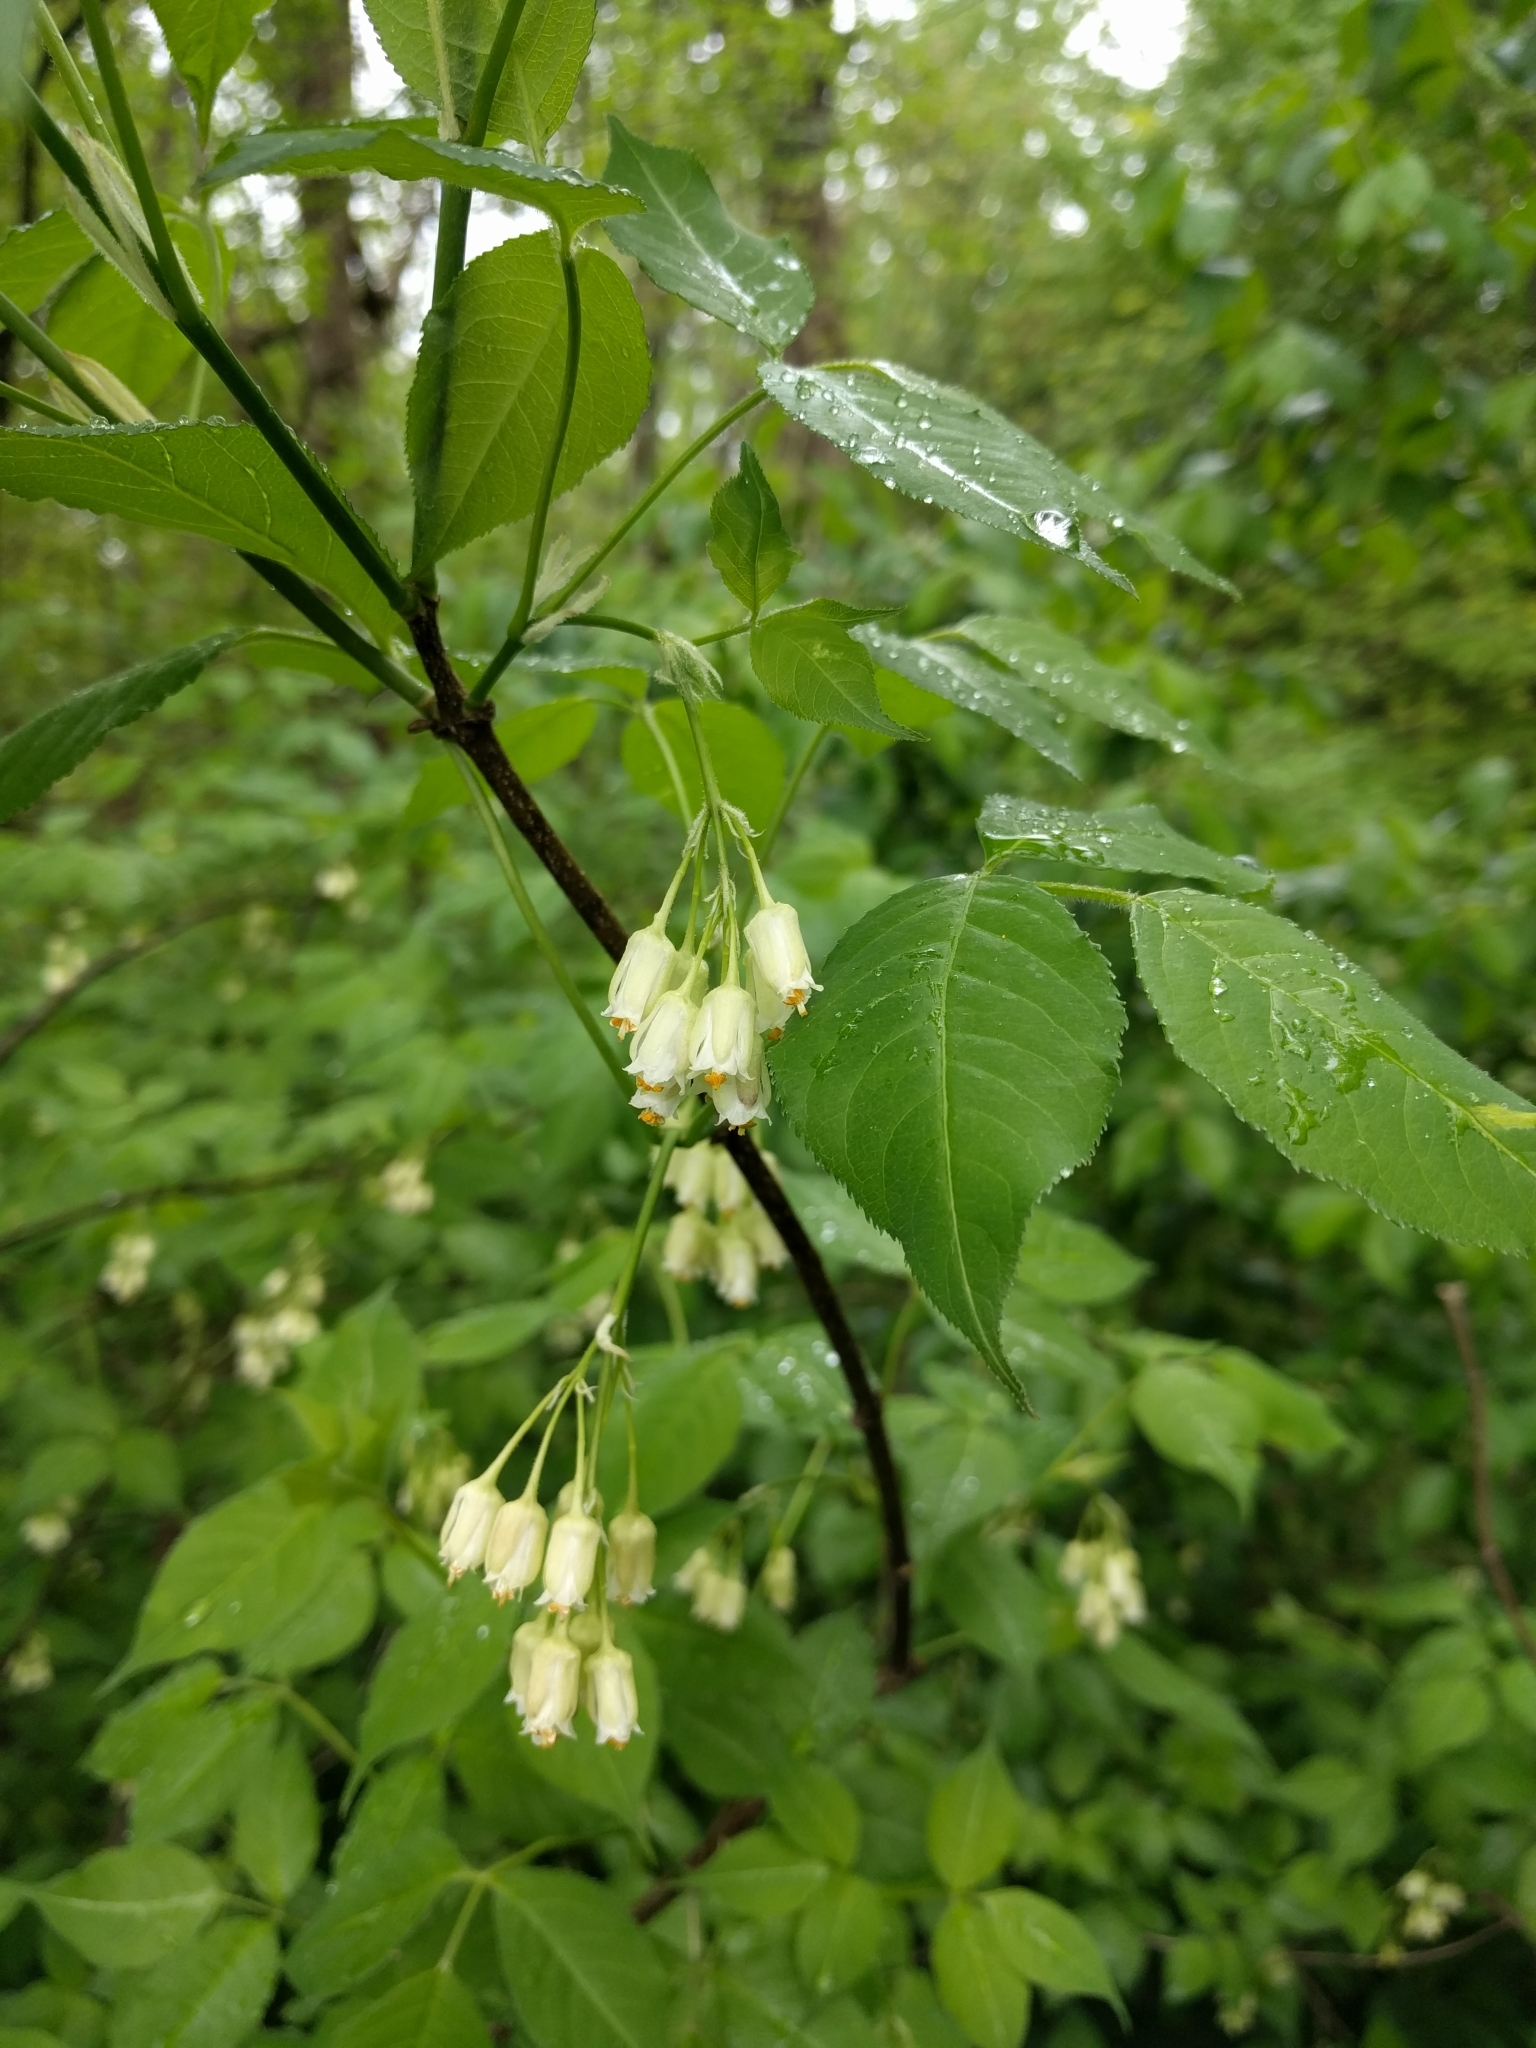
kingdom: Plantae
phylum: Tracheophyta
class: Magnoliopsida
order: Crossosomatales
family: Staphyleaceae
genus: Staphylea
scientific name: Staphylea trifolia
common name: American bladdernut
